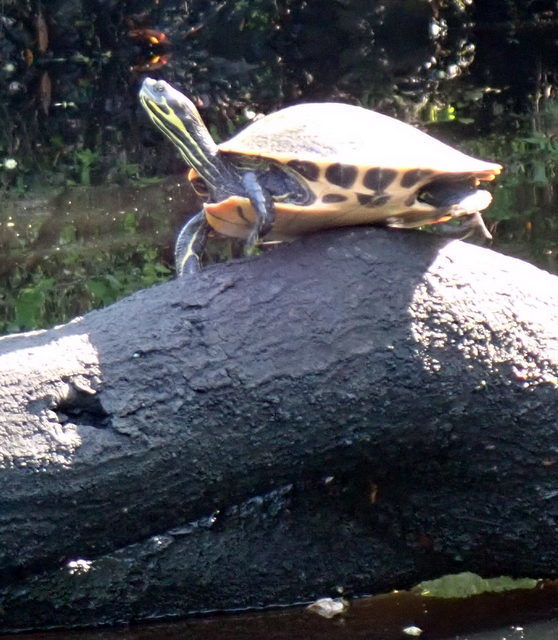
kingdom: Animalia
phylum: Chordata
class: Testudines
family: Emydidae
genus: Pseudemys
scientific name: Pseudemys concinna
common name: Eastern river cooter
